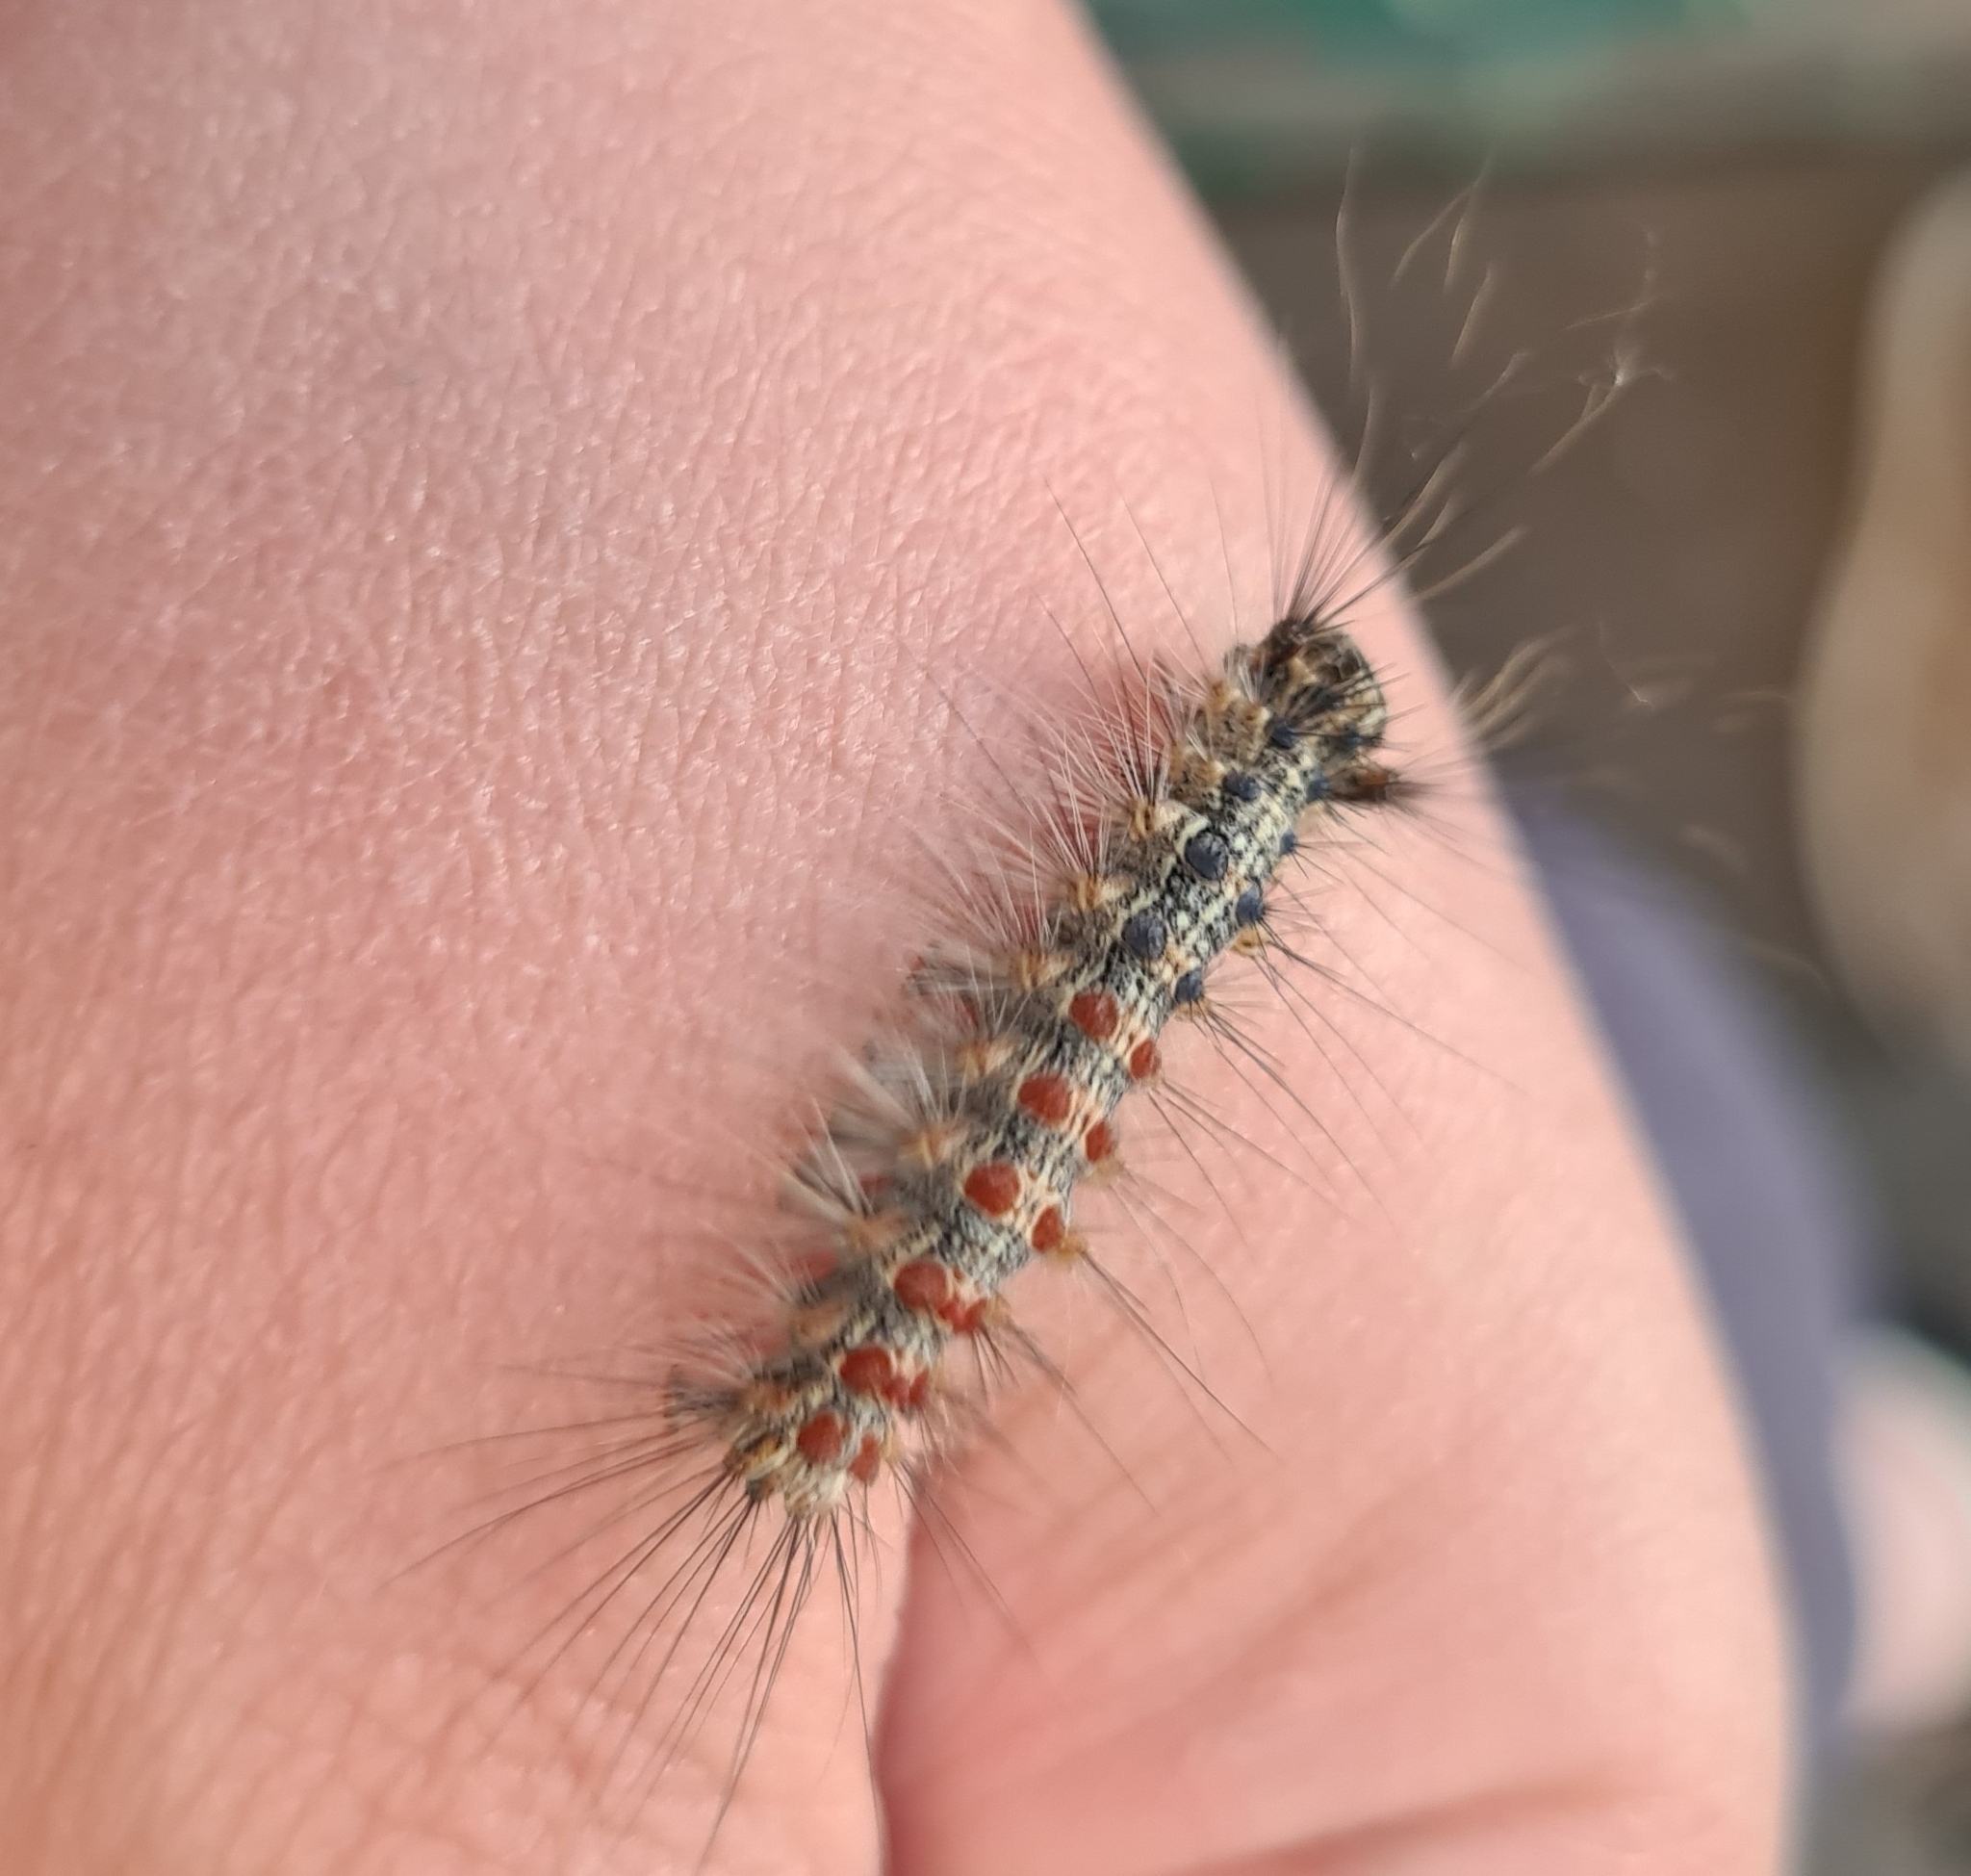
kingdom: Animalia
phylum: Arthropoda
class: Insecta
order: Lepidoptera
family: Erebidae
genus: Lymantria
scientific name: Lymantria dispar
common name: Gypsy moth
